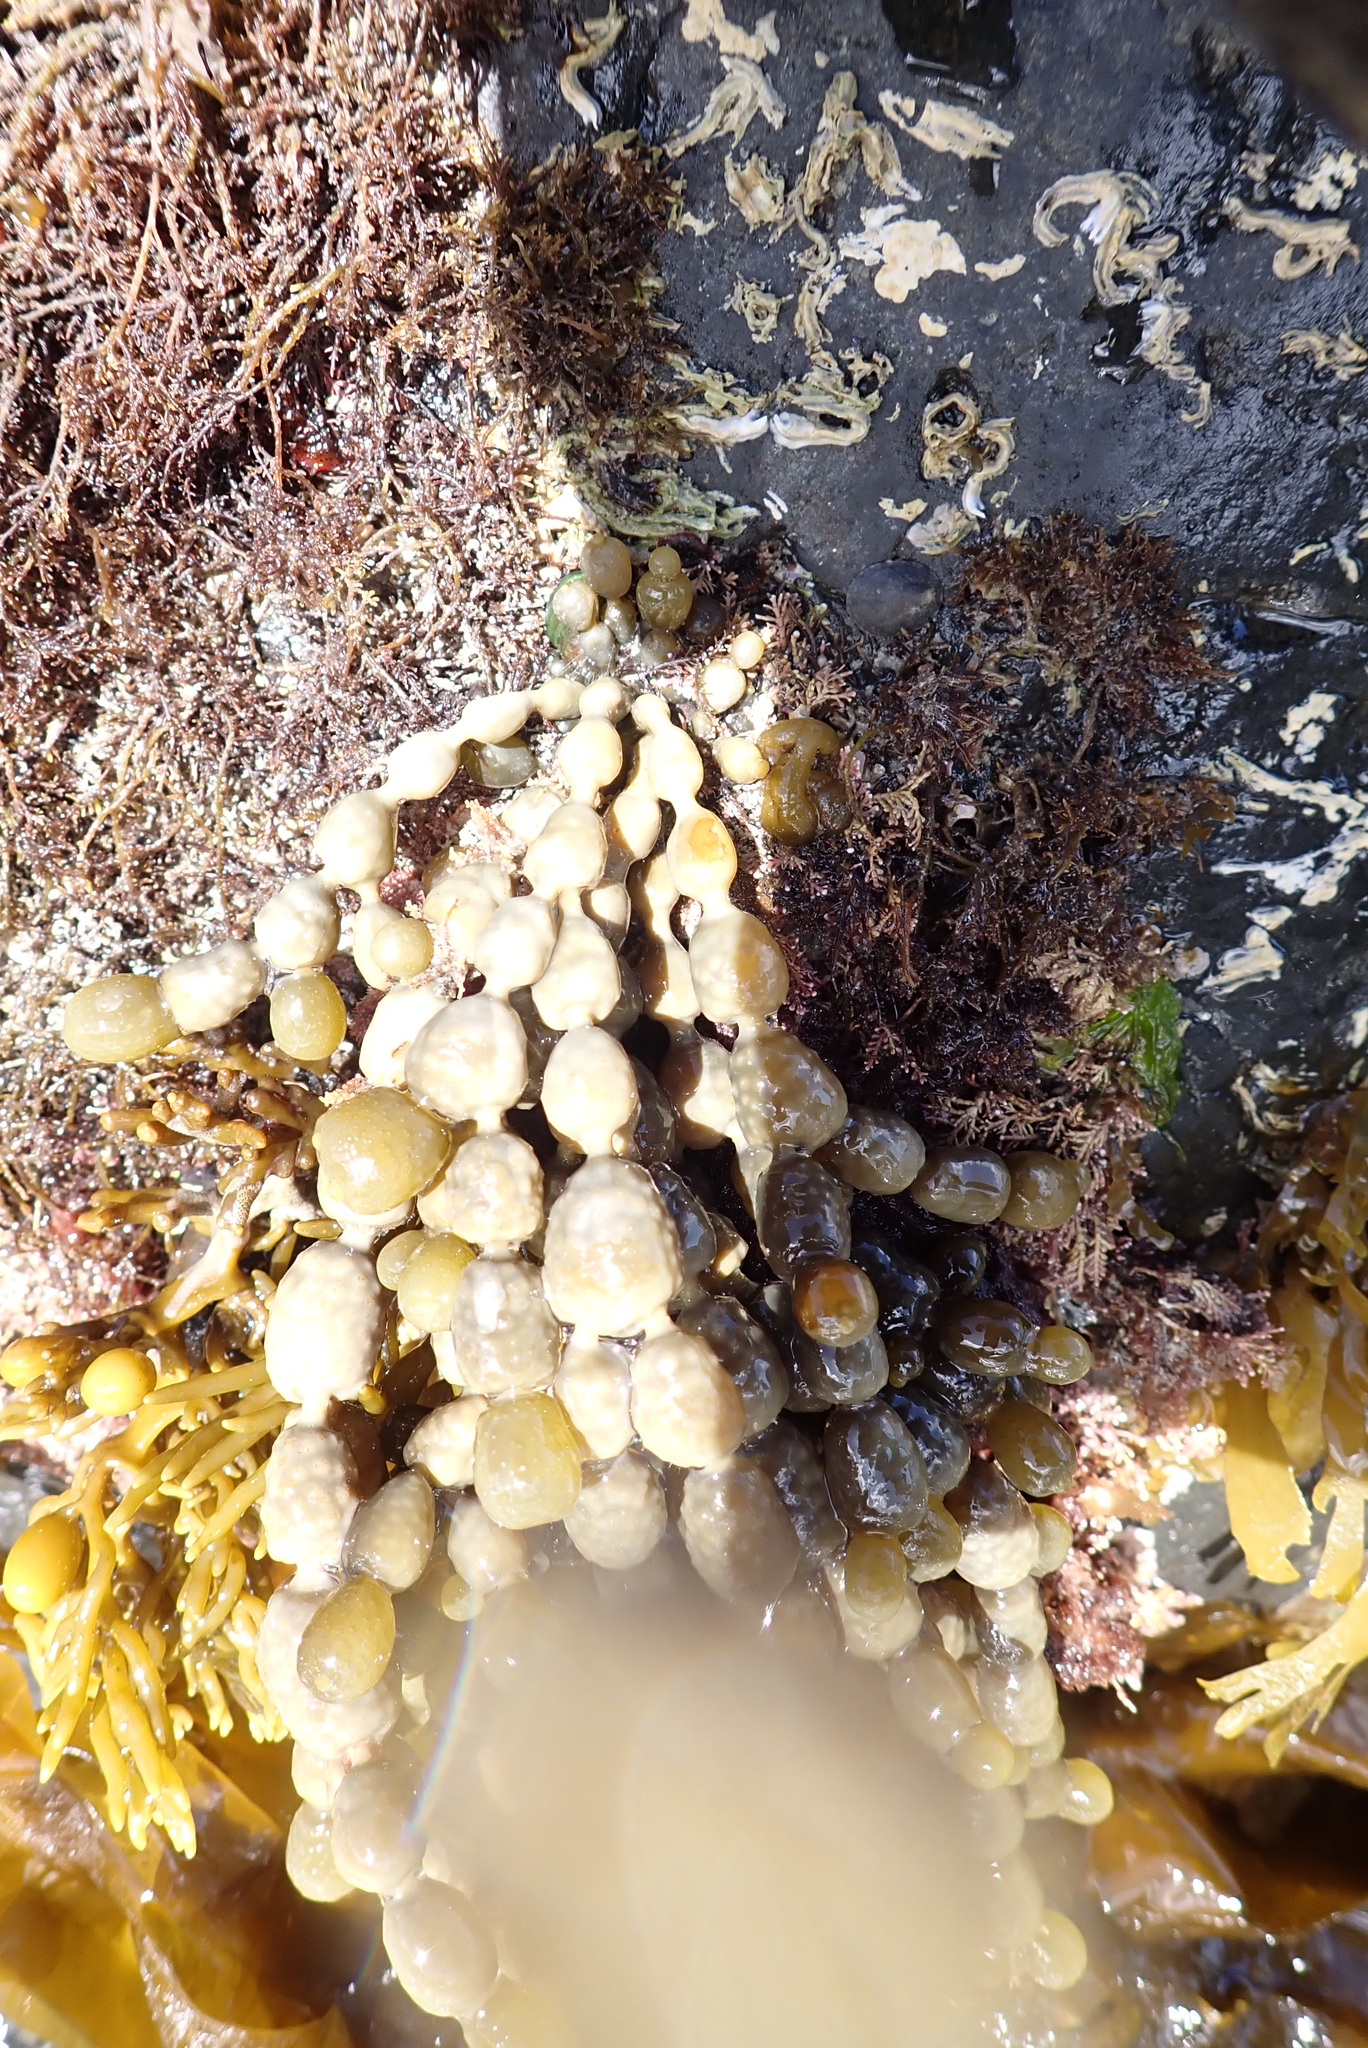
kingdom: Chromista
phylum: Ochrophyta
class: Phaeophyceae
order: Fucales
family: Hormosiraceae
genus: Hormosira
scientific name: Hormosira banksii
